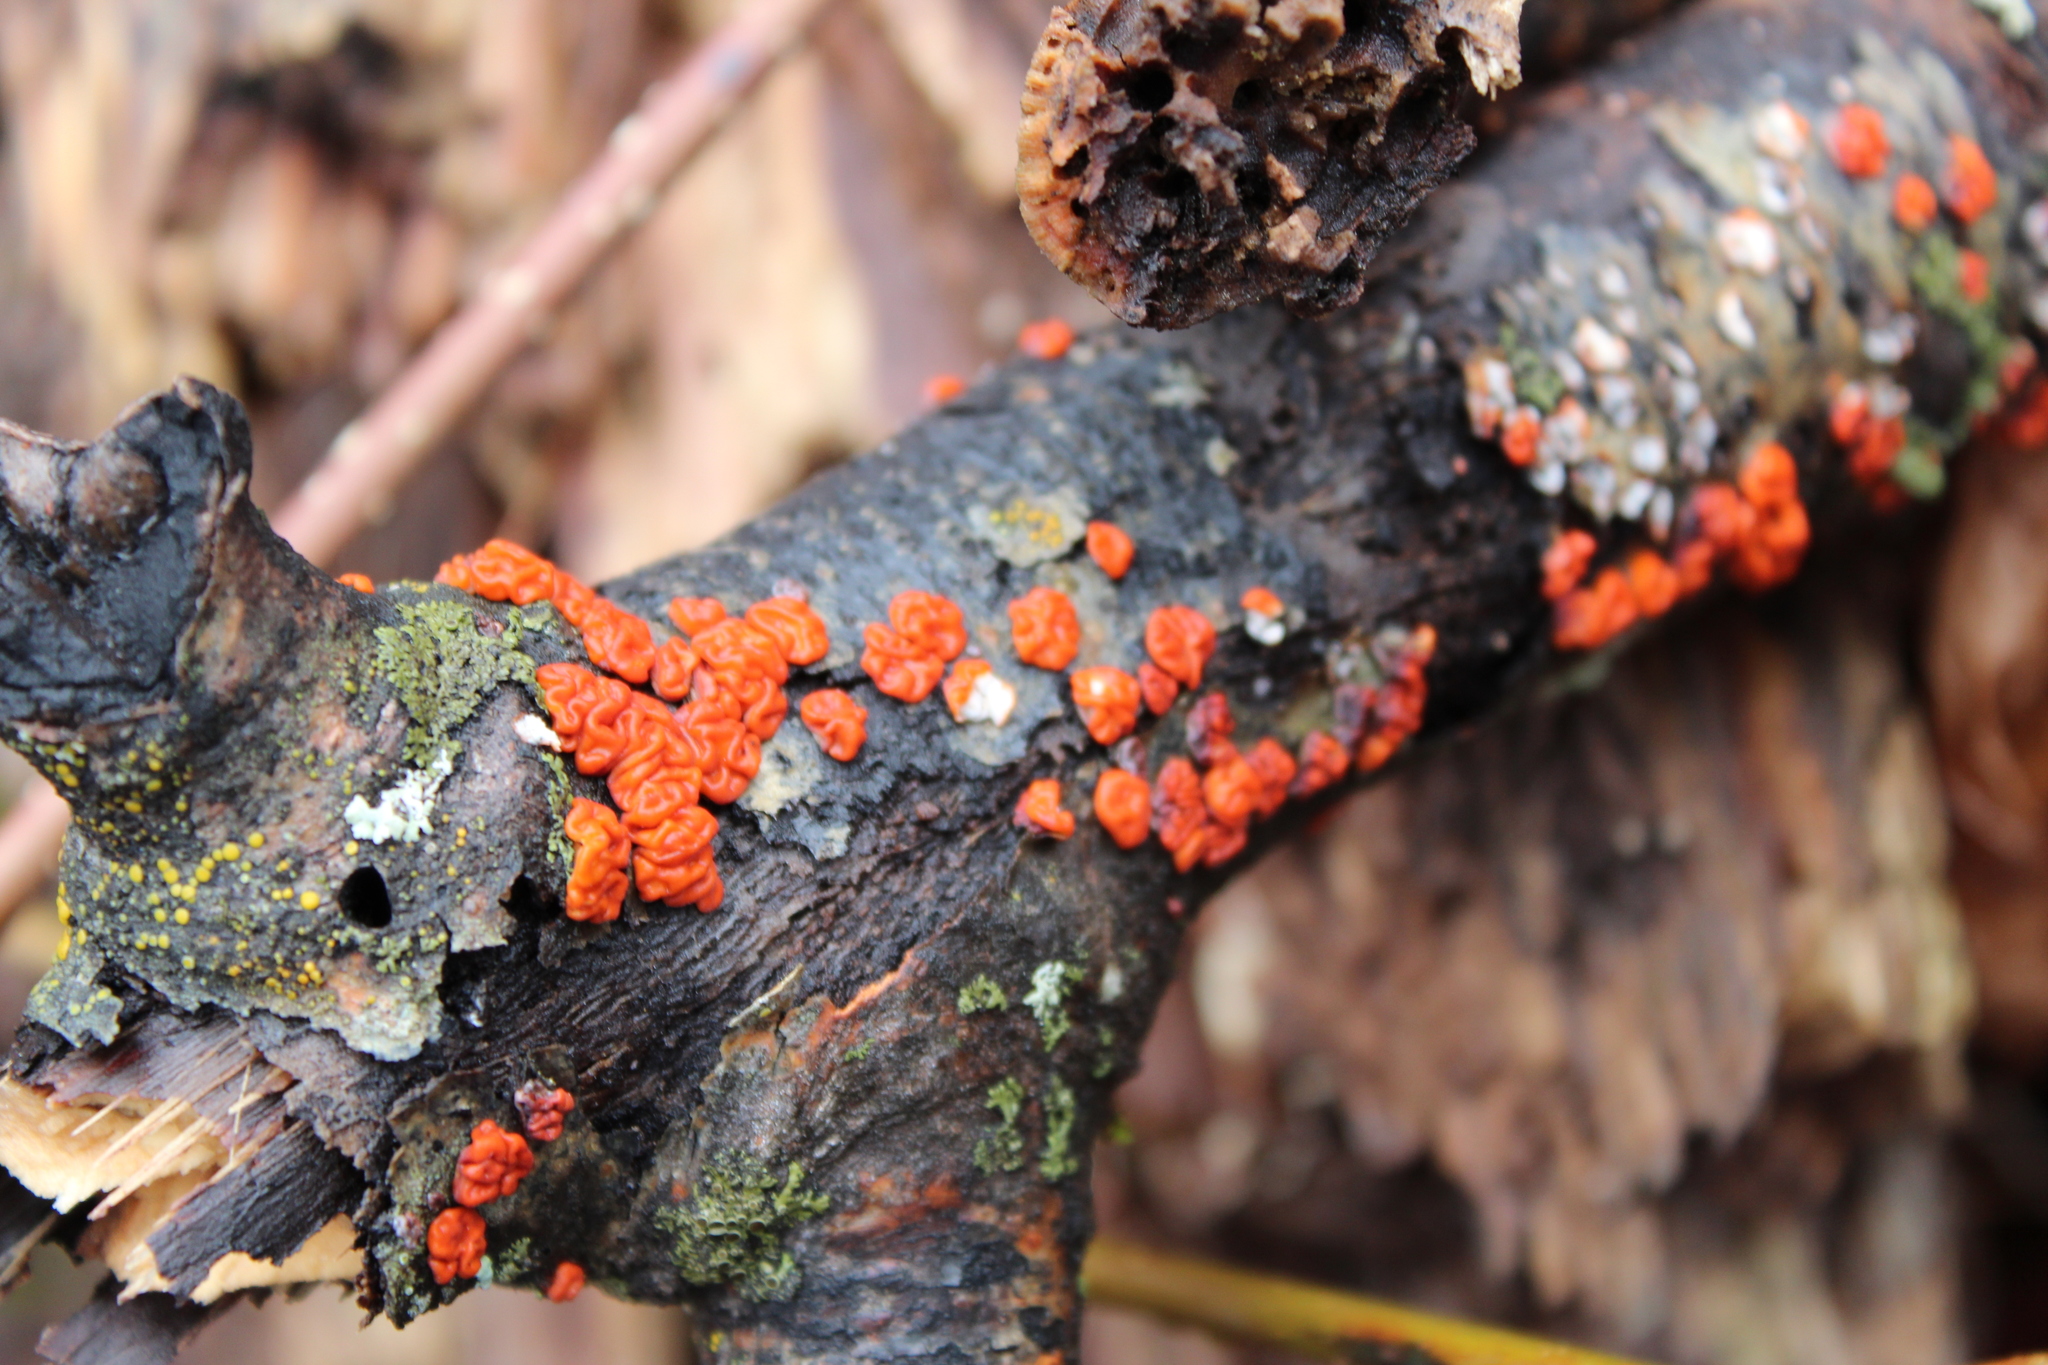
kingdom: Fungi
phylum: Basidiomycota
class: Agaricomycetes
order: Russulales
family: Peniophoraceae
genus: Peniophora
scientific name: Peniophora rufa
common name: Red tree brain fungus
